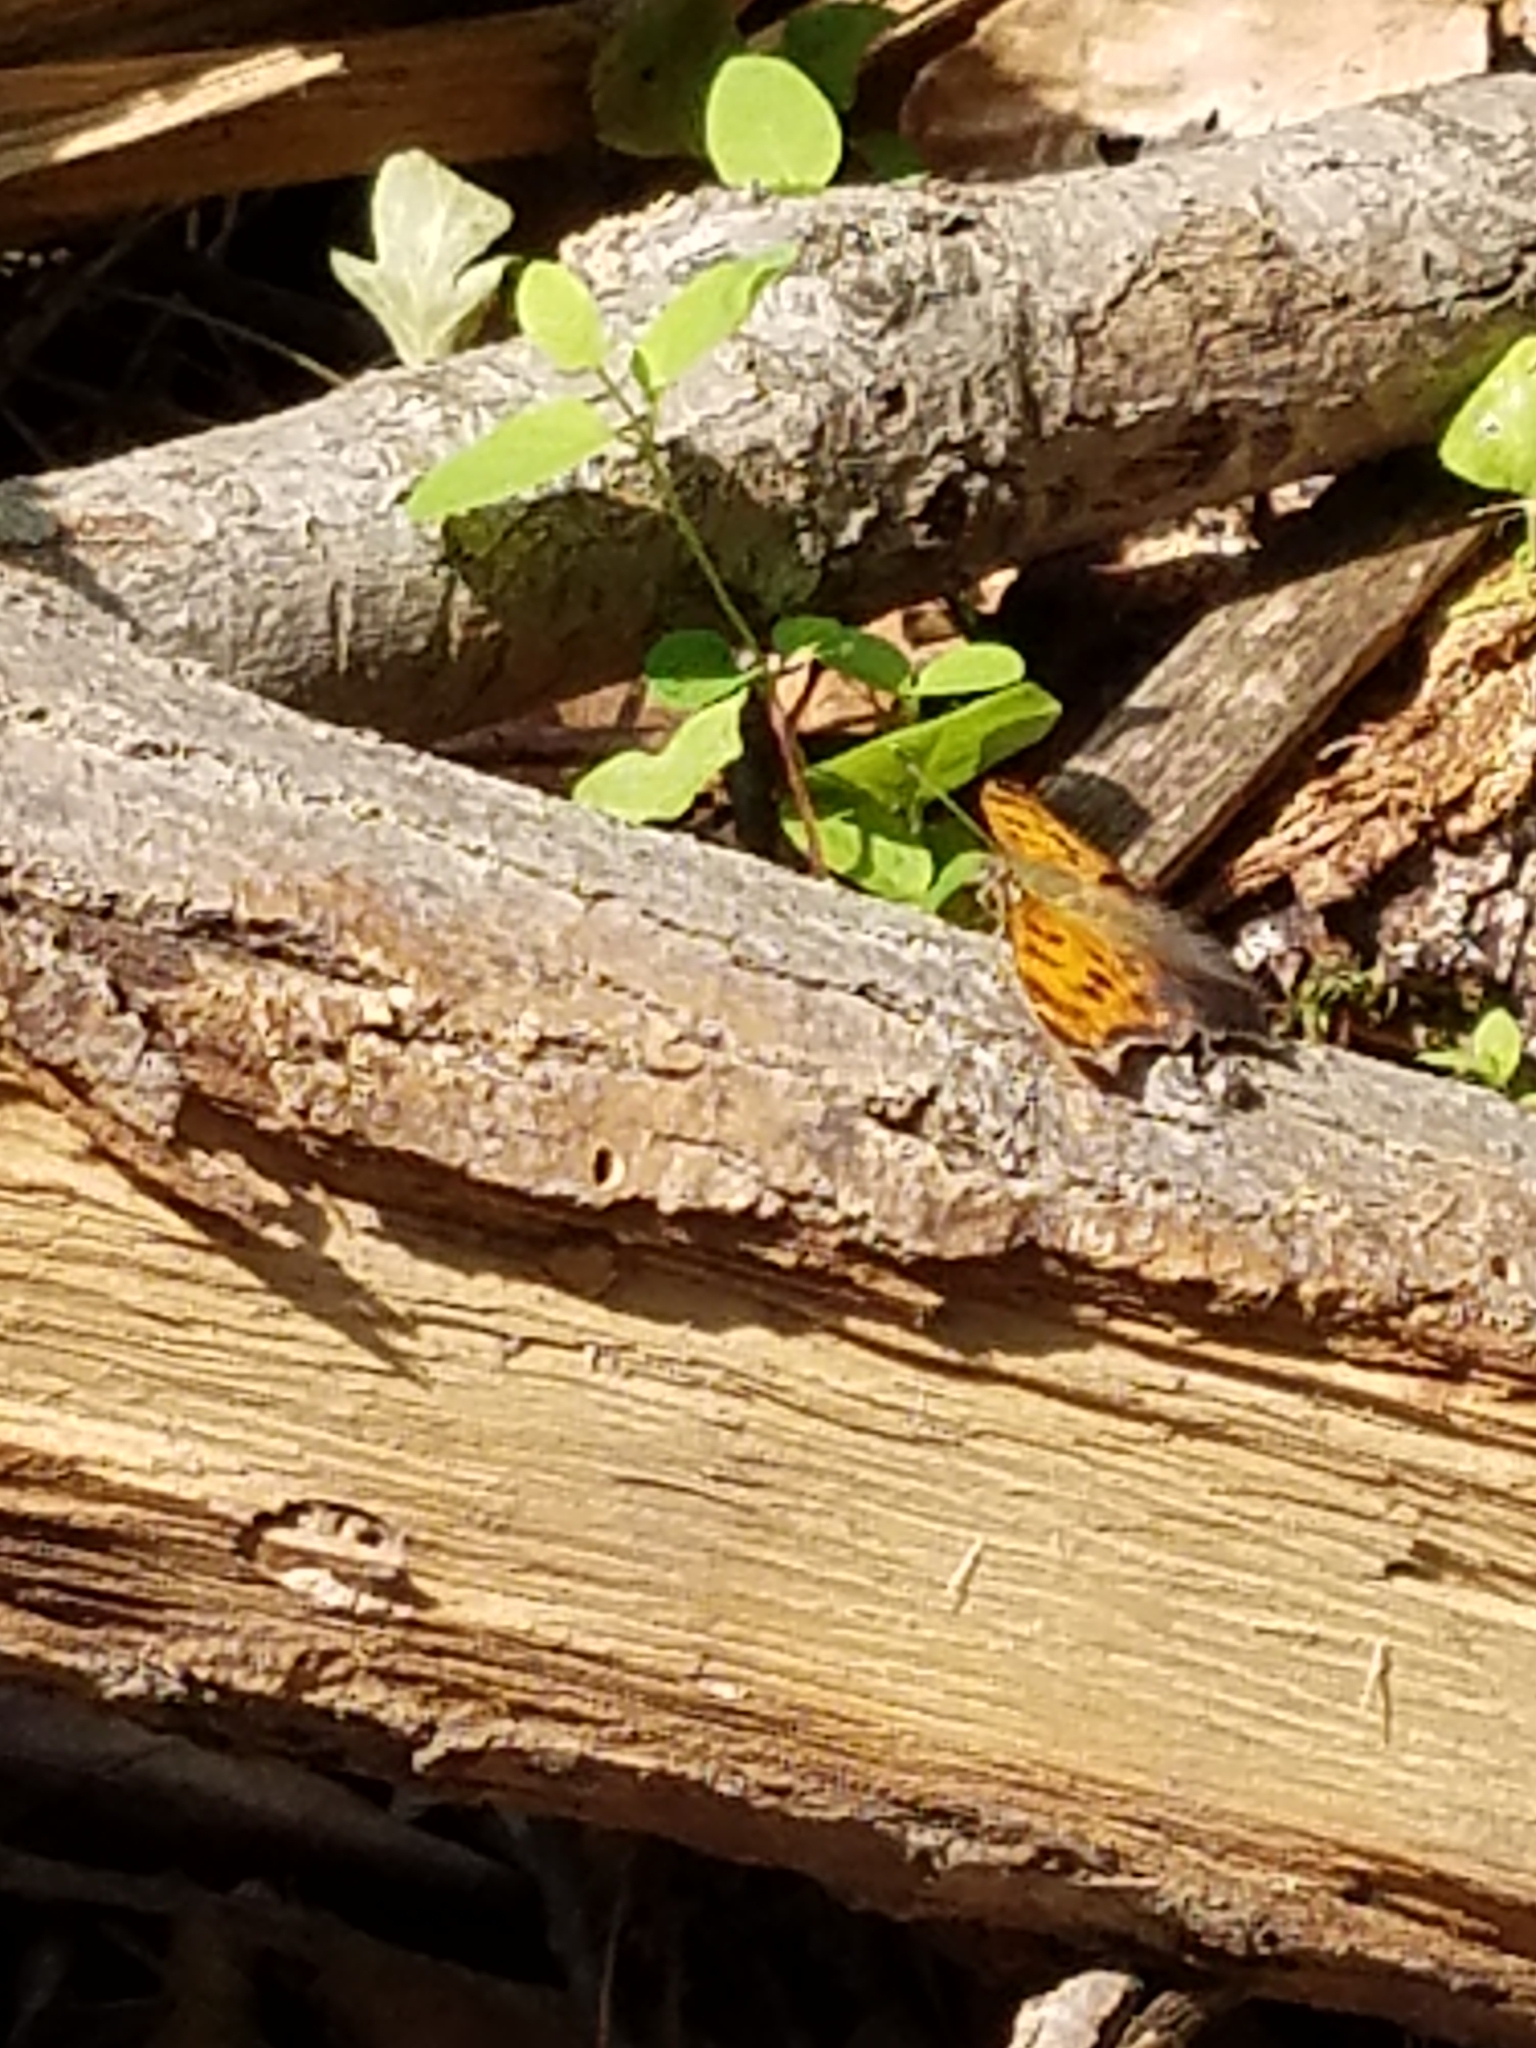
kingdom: Animalia
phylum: Arthropoda
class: Insecta
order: Lepidoptera
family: Nymphalidae
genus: Polygonia
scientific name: Polygonia comma
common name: Eastern comma
